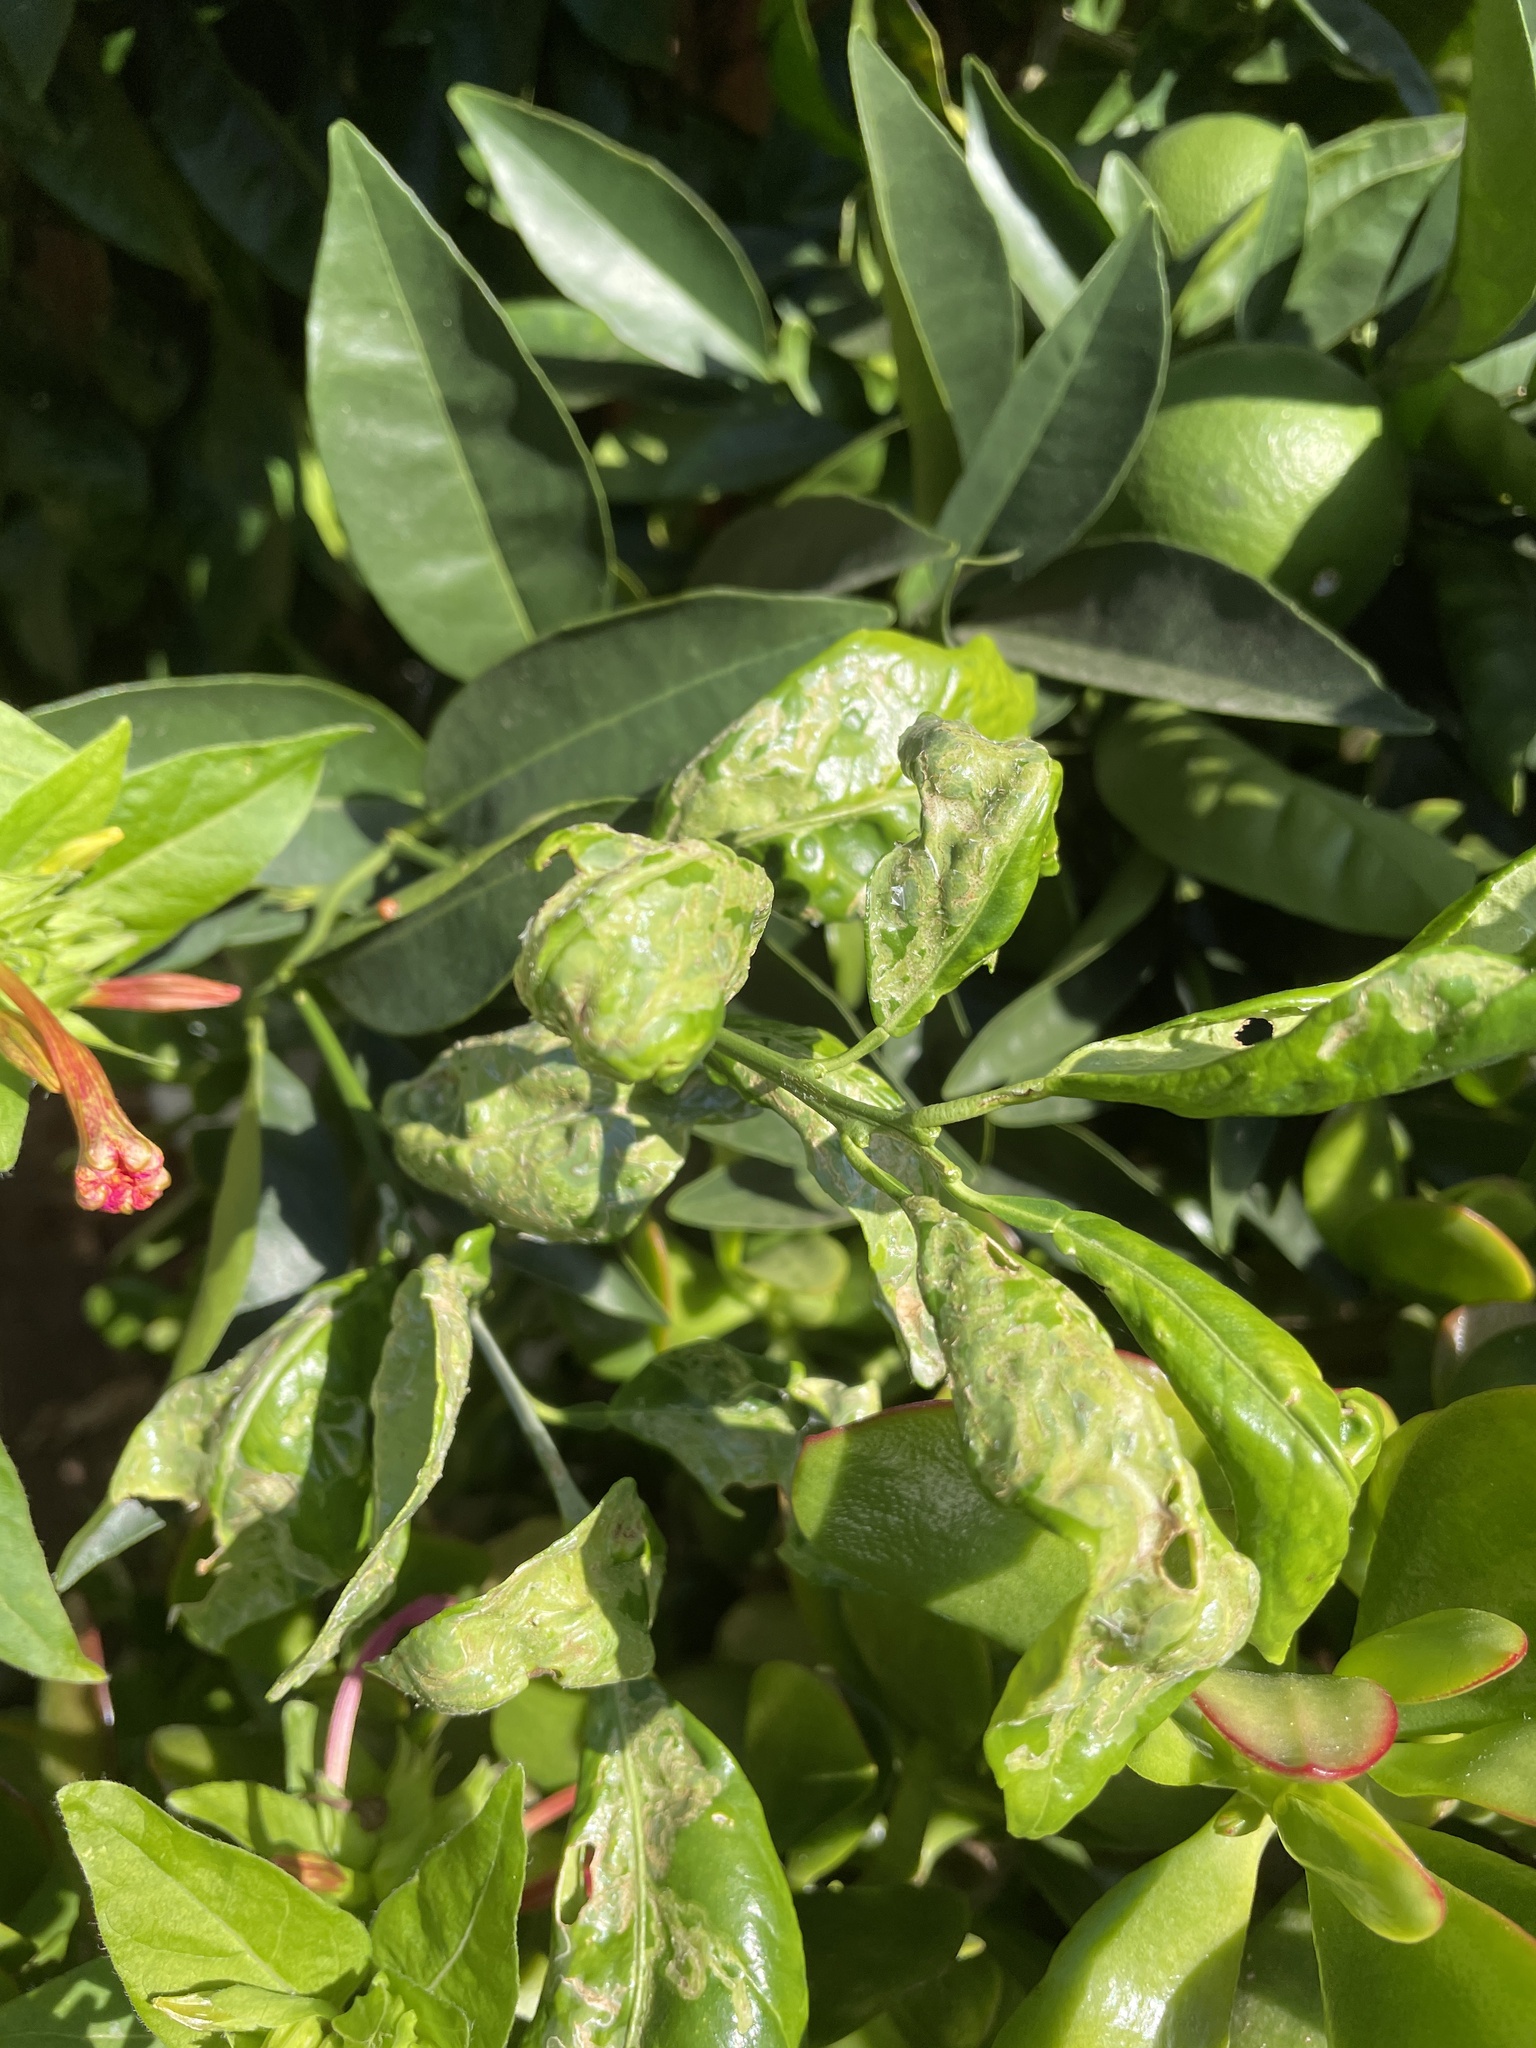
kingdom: Animalia
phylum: Arthropoda
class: Insecta
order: Lepidoptera
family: Gracillariidae
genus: Phyllocnistis
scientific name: Phyllocnistis citrella
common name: Citrus leafminer
